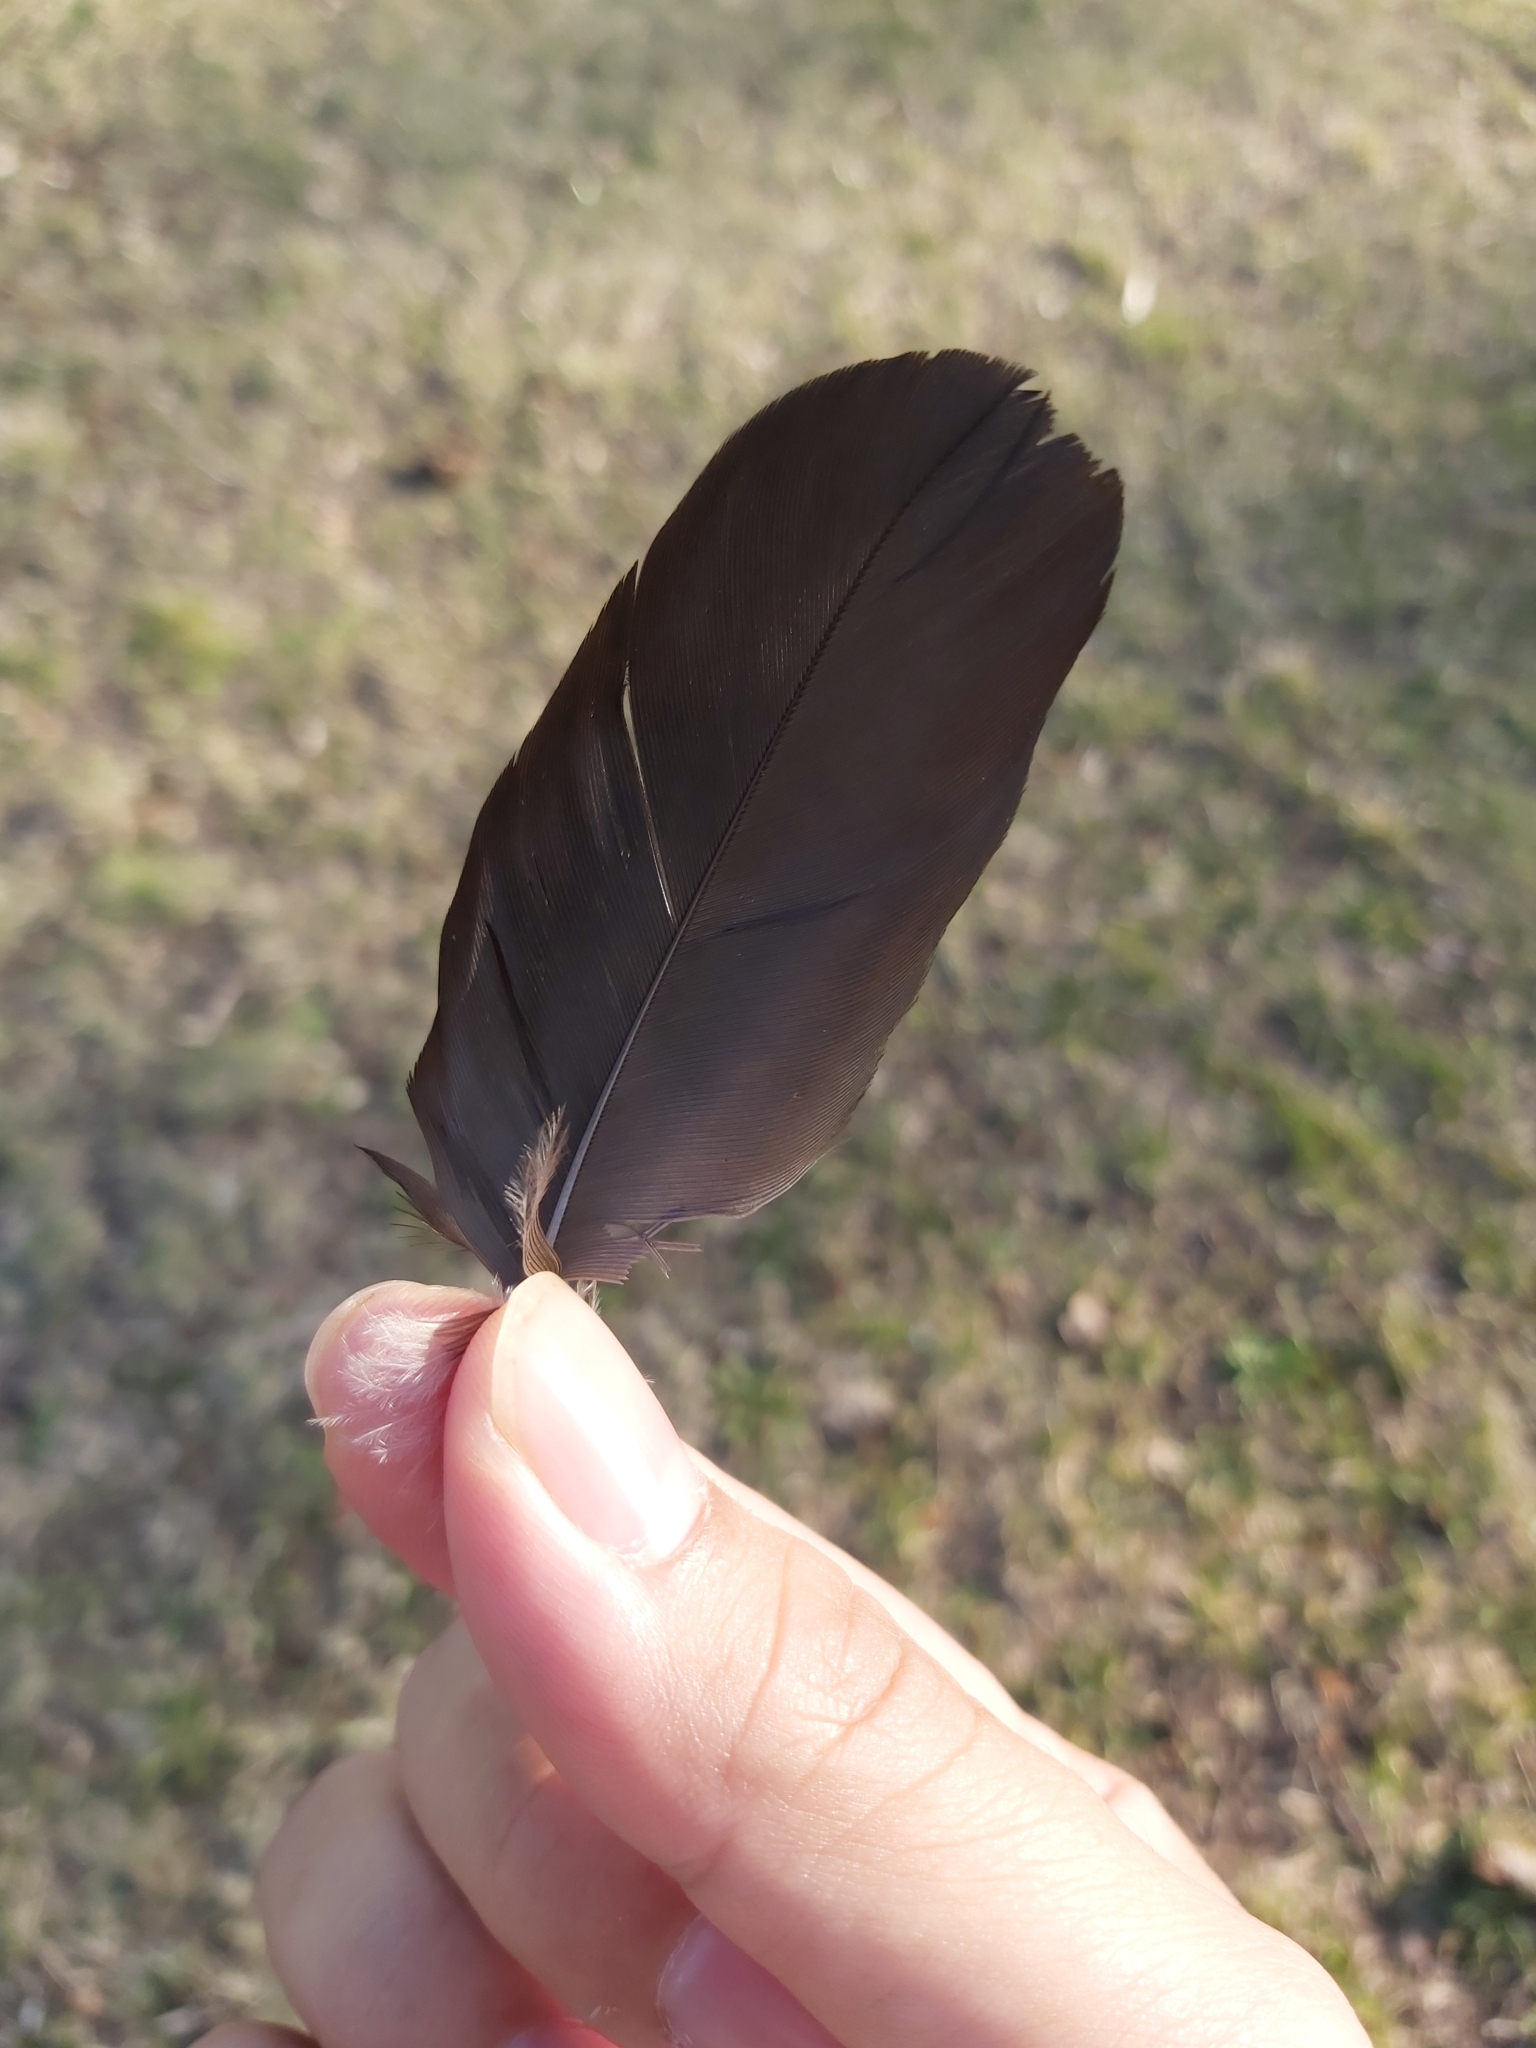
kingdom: Animalia
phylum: Chordata
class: Aves
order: Passeriformes
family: Corvidae
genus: Corvus
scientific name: Corvus cornix
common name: Hooded crow
